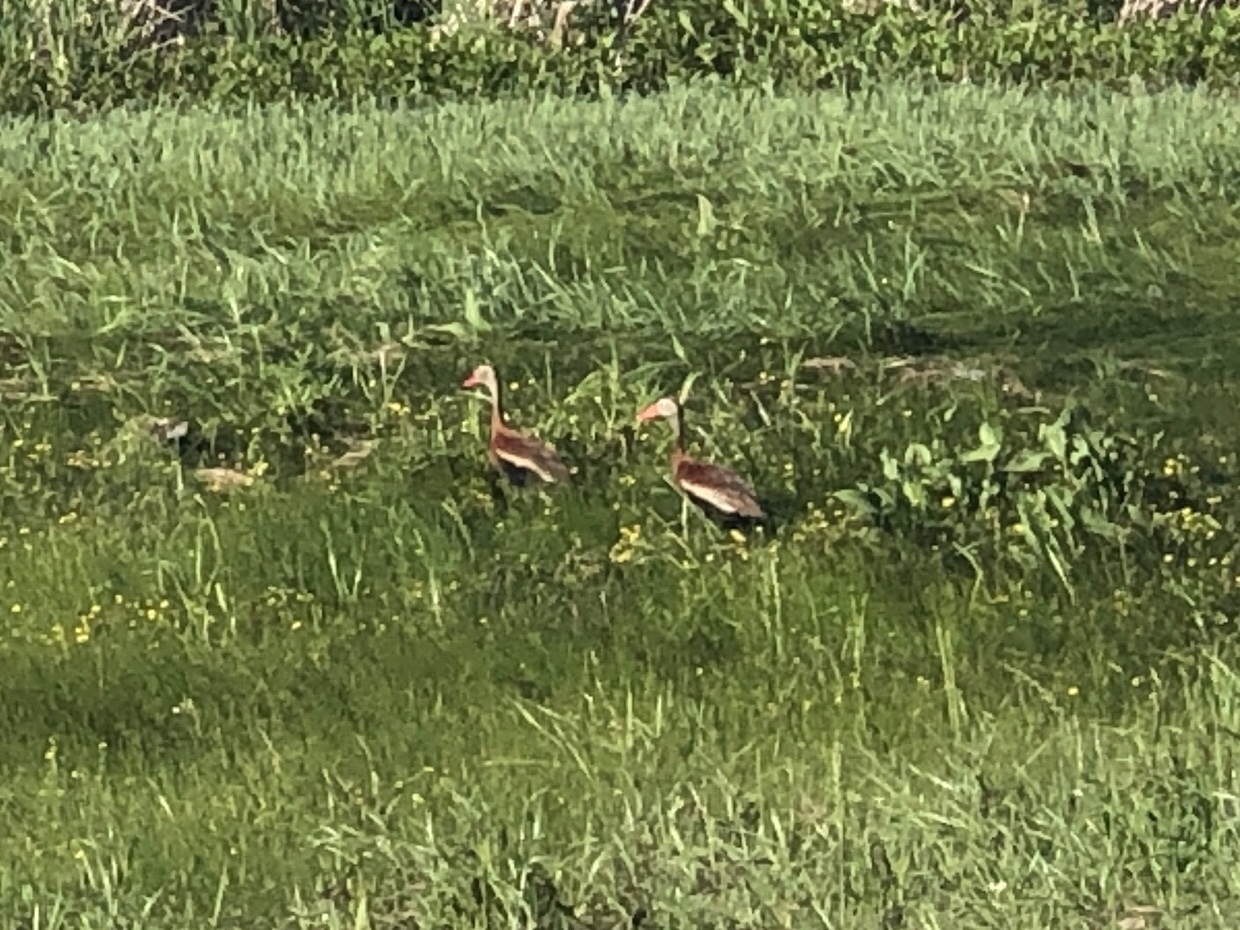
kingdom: Animalia
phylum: Chordata
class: Aves
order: Anseriformes
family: Anatidae
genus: Dendrocygna
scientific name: Dendrocygna autumnalis
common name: Black-bellied whistling duck
